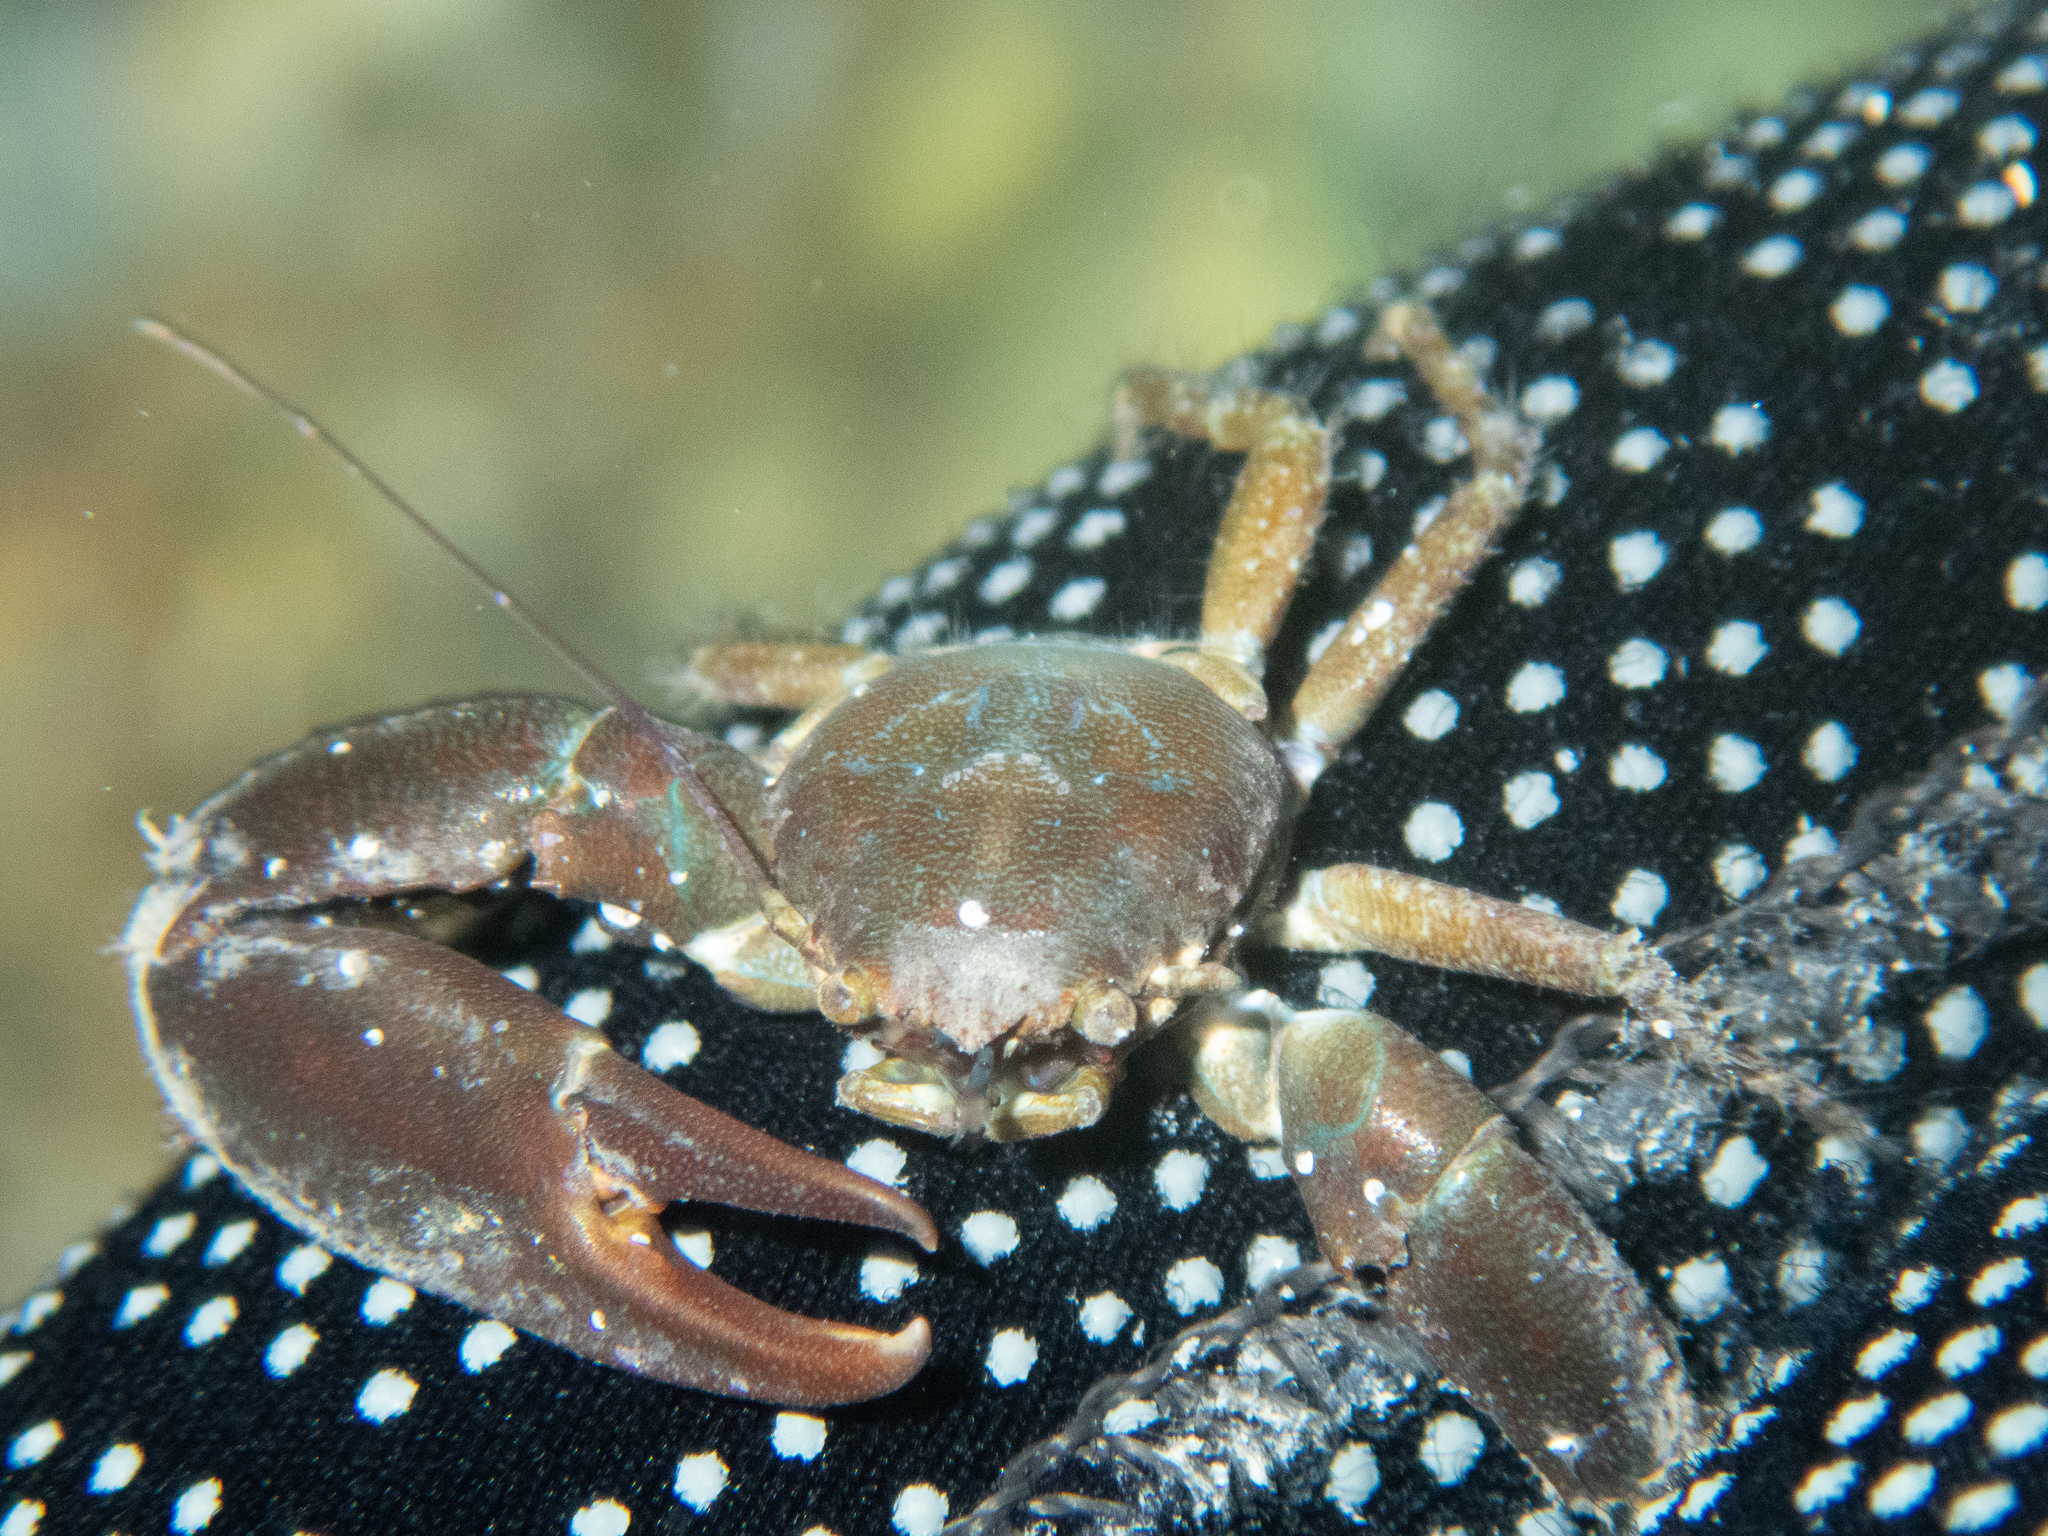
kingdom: Animalia
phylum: Arthropoda
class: Malacostraca
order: Decapoda
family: Porcellanidae
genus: Pisidia
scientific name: Pisidia longicornis
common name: Long clawed porcelain crab
